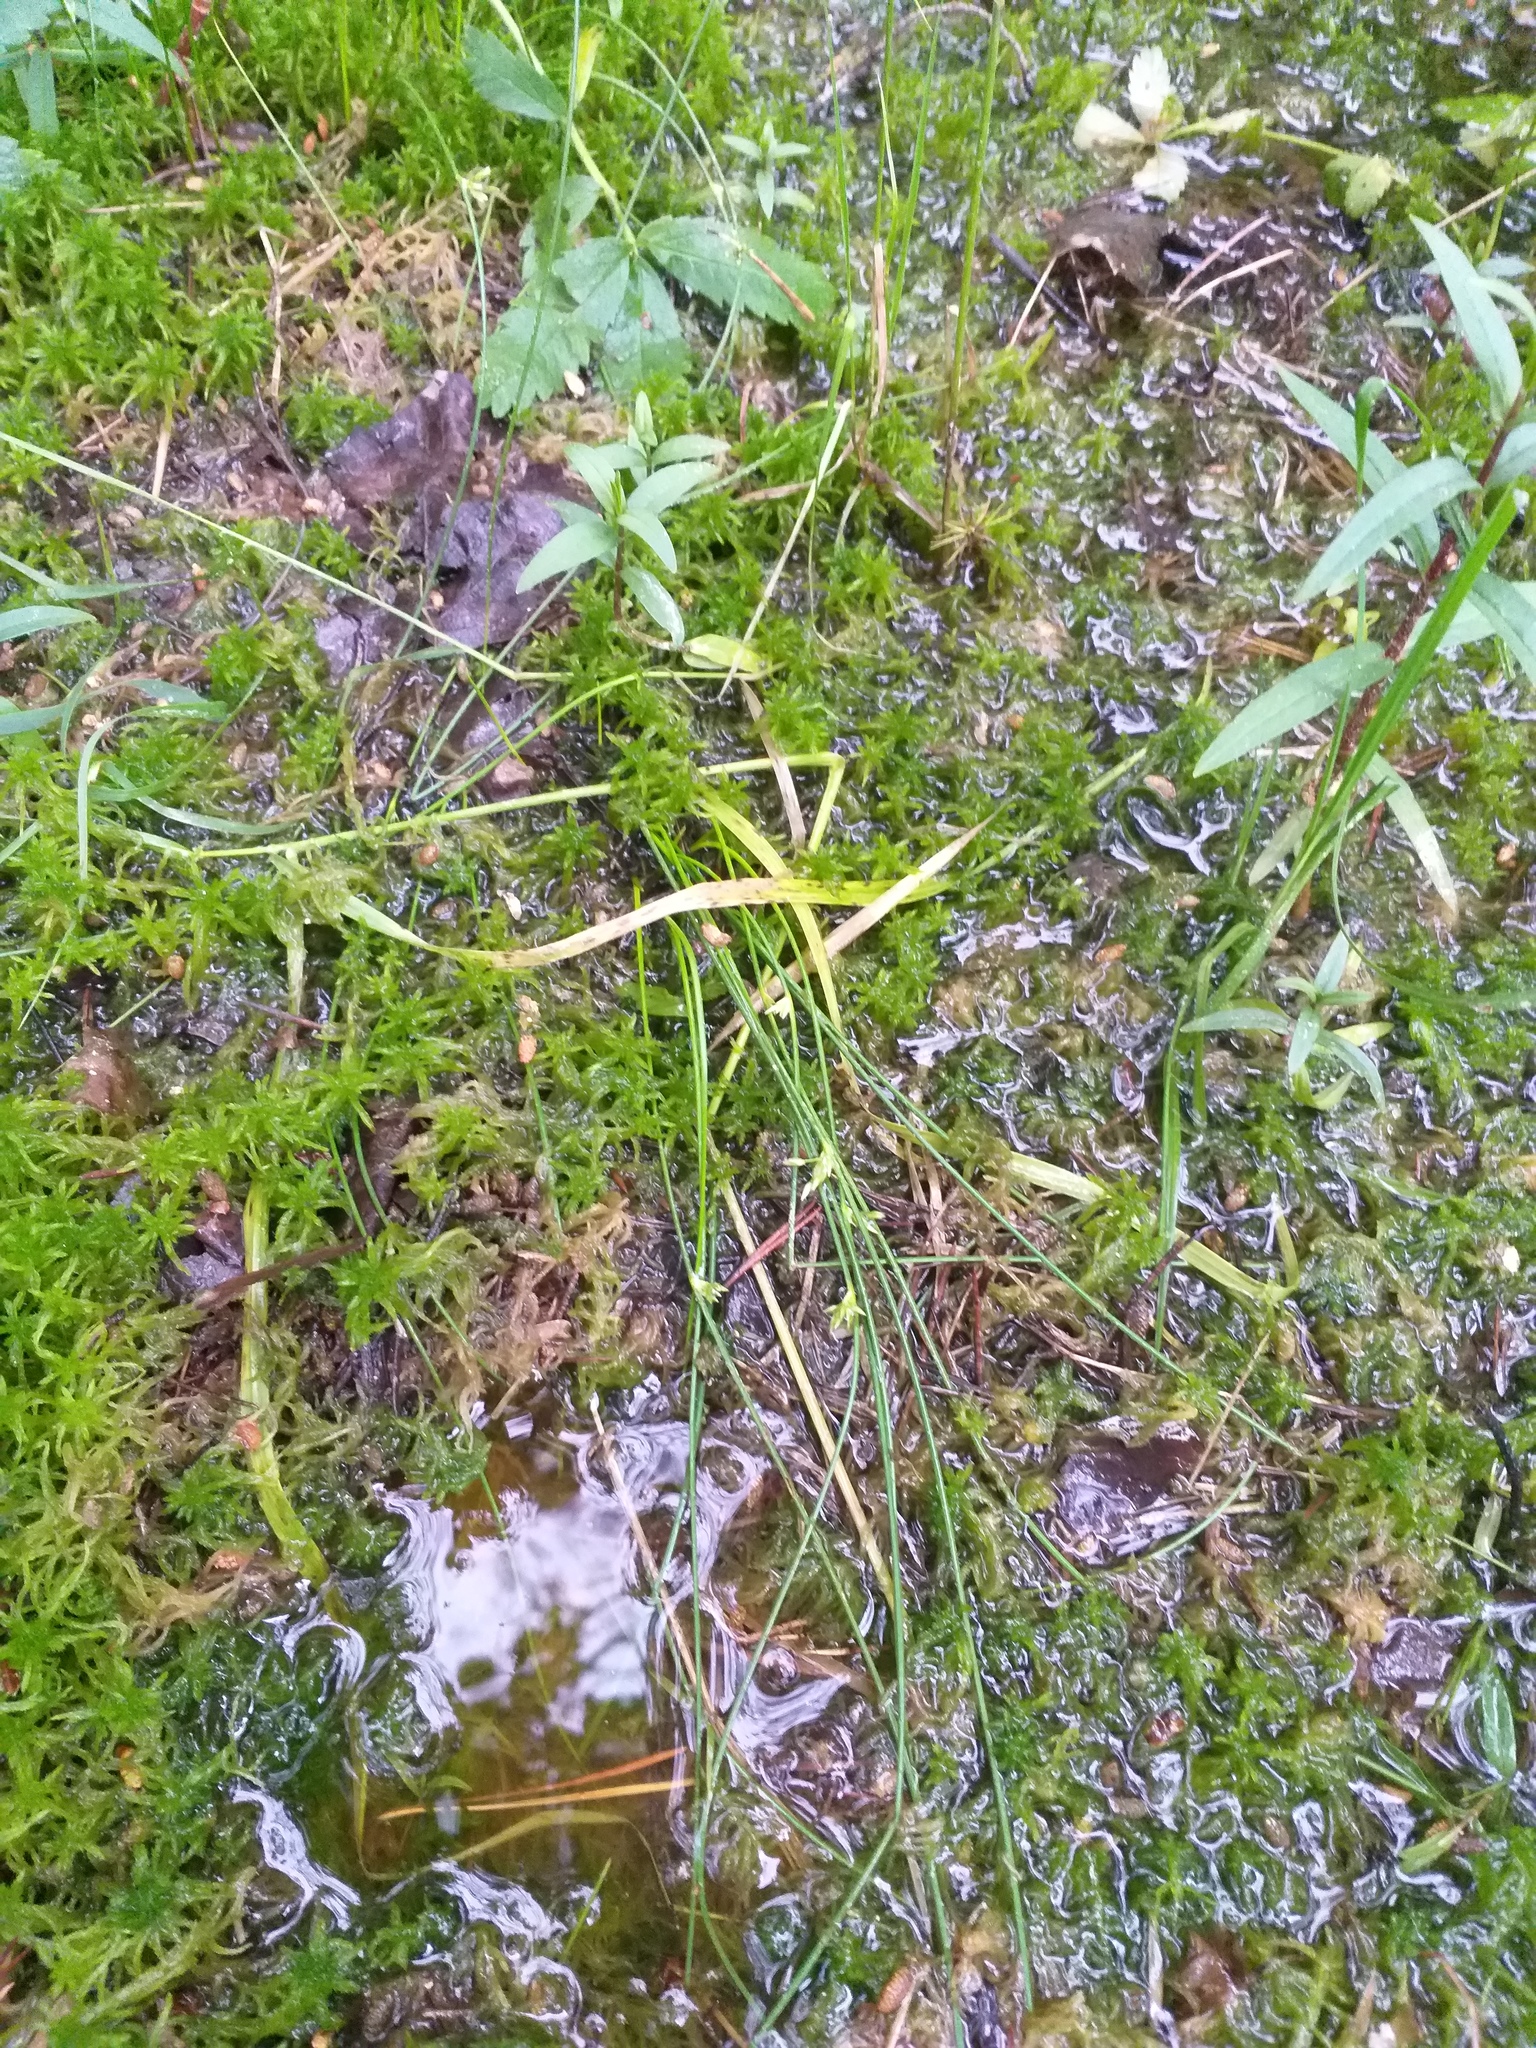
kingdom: Plantae
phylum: Tracheophyta
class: Liliopsida
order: Poales
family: Juncaceae
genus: Juncus
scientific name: Juncus filiformis
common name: Thread rush
